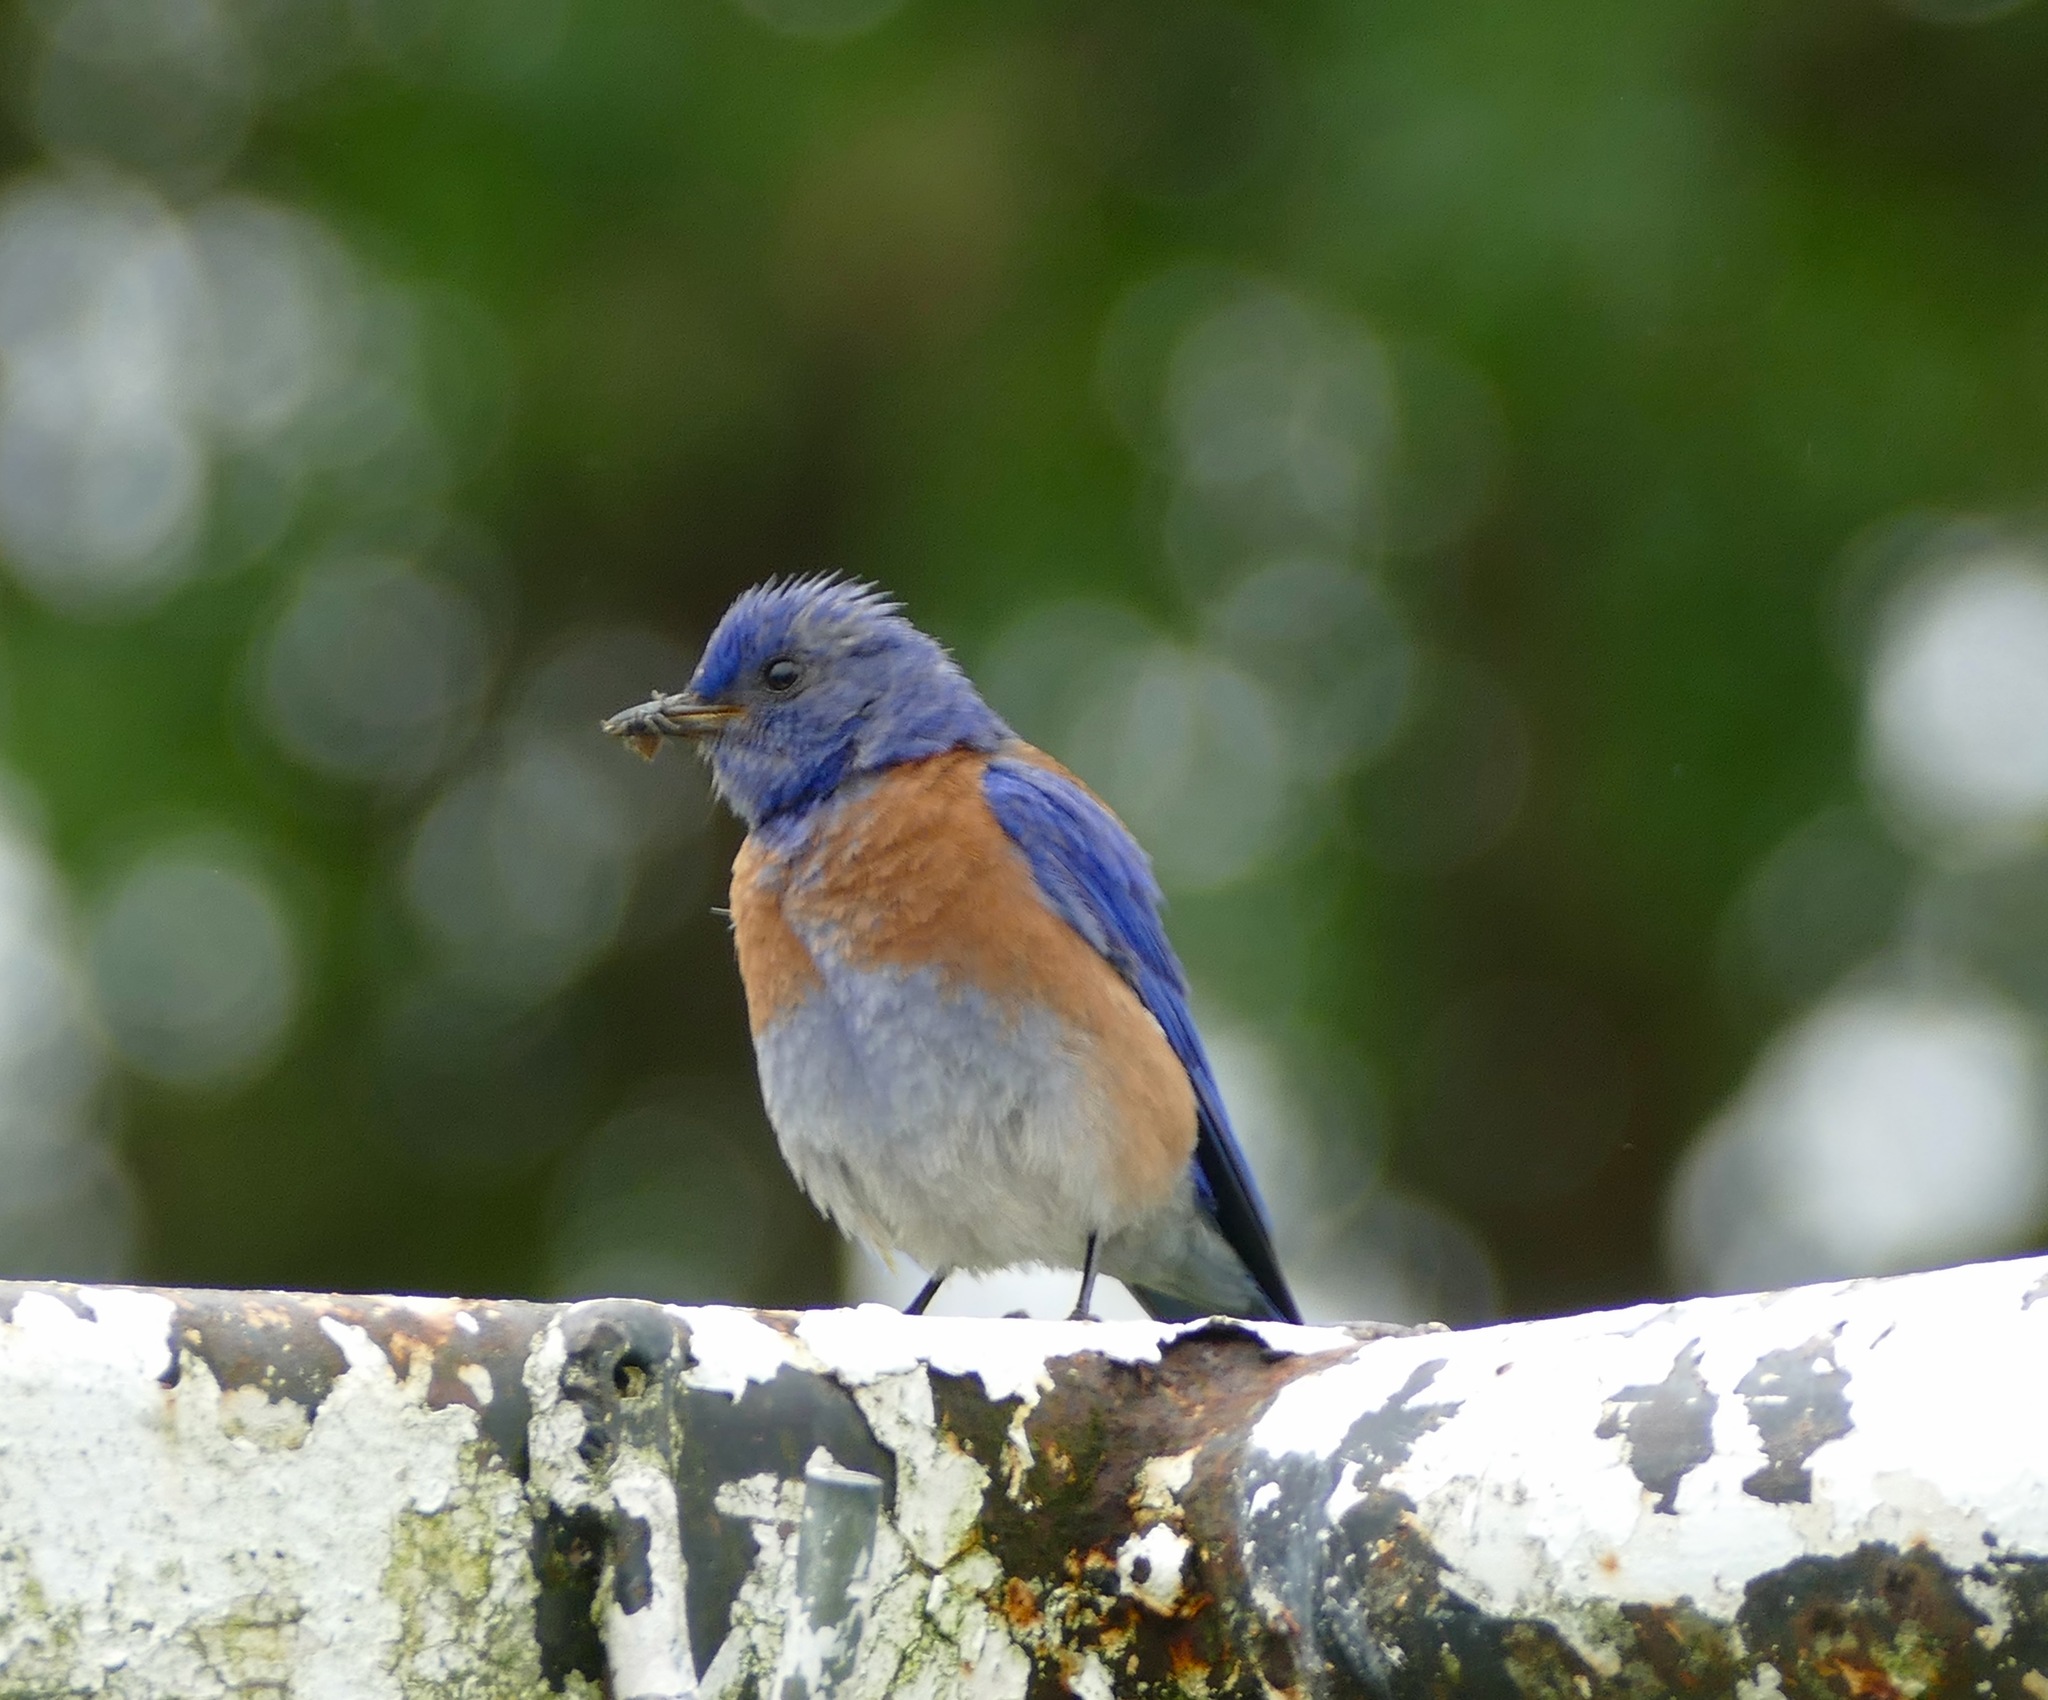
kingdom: Animalia
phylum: Chordata
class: Aves
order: Passeriformes
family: Turdidae
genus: Sialia
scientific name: Sialia mexicana
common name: Western bluebird
